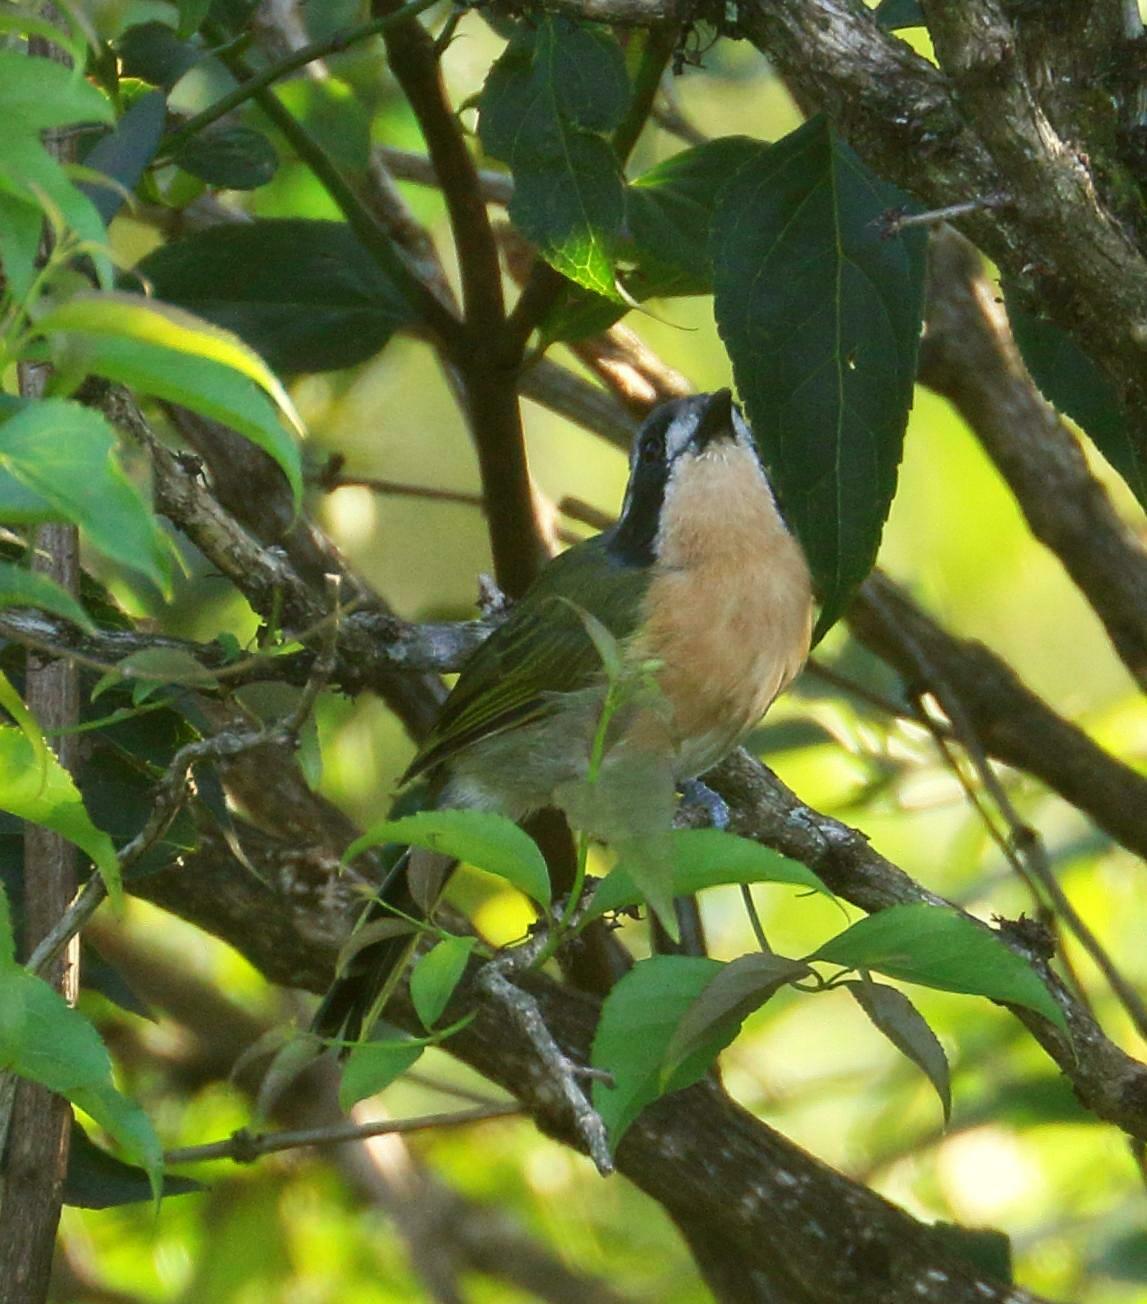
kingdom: Animalia
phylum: Chordata
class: Aves
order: Passeriformes
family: Malaconotidae
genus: Chlorophoneus
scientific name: Chlorophoneus olivaceus
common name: Olive bushshrike
